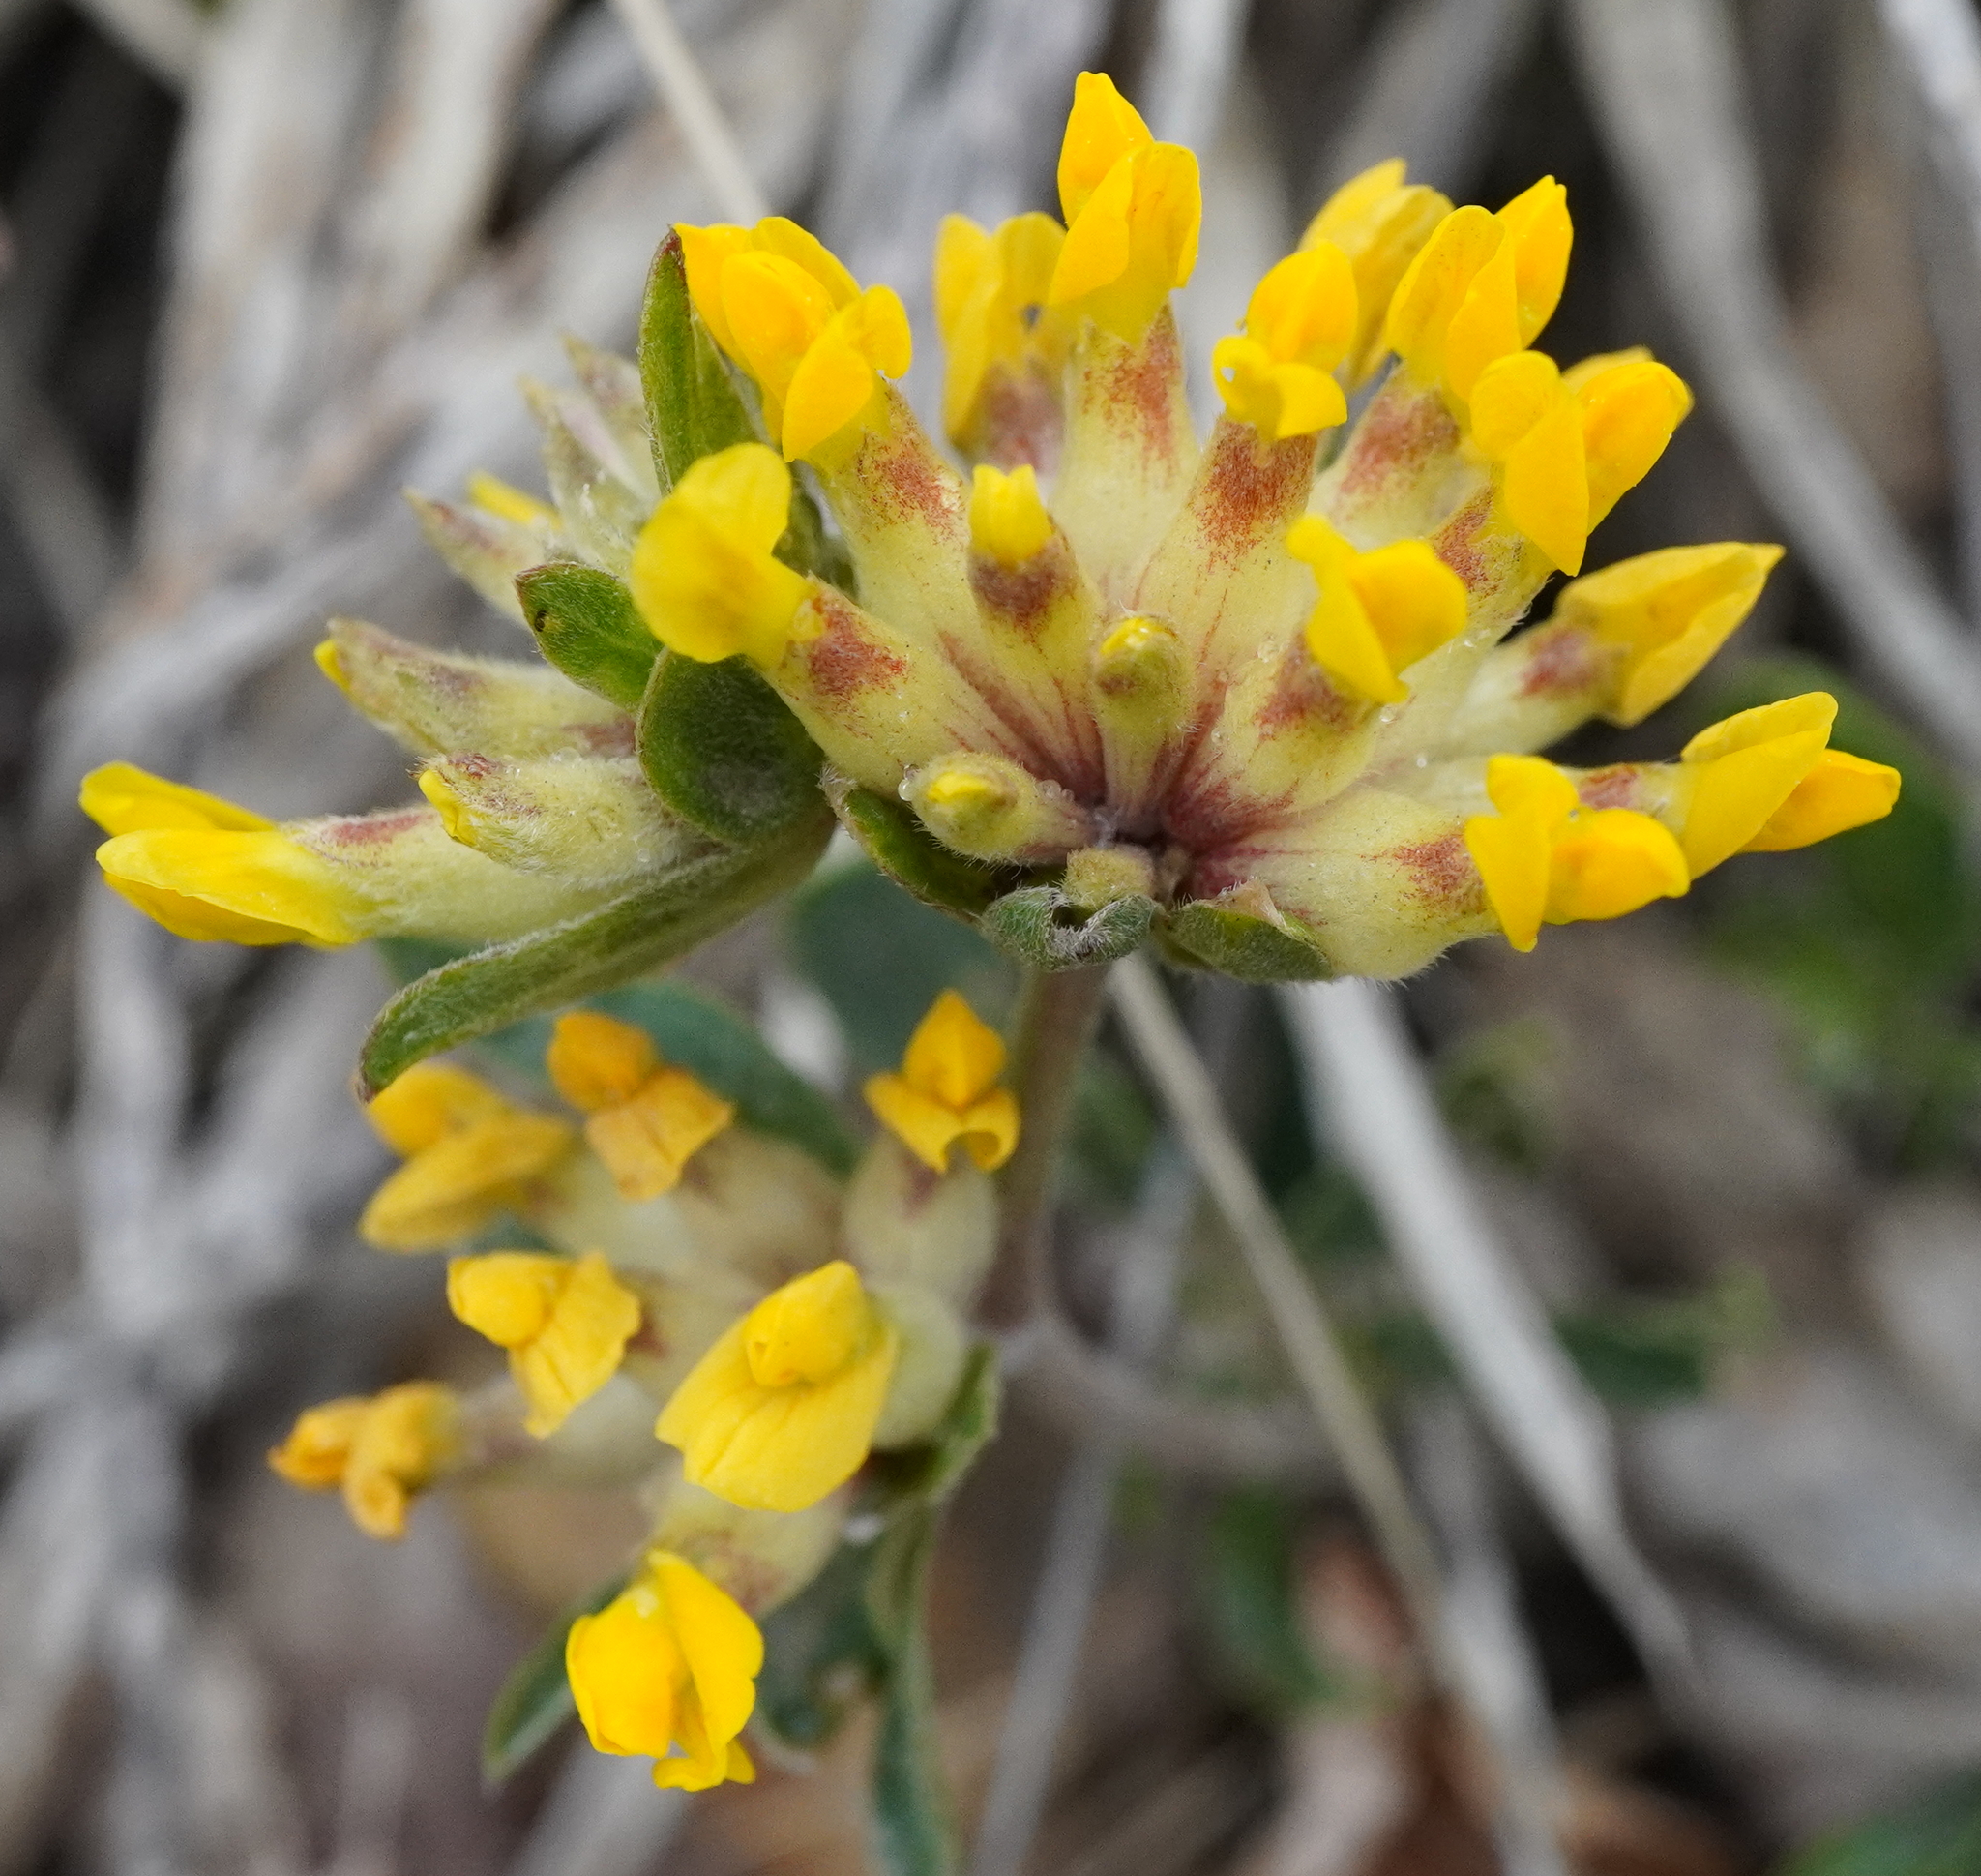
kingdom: Plantae
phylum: Tracheophyta
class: Magnoliopsida
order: Fabales
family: Fabaceae
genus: Anthyllis
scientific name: Anthyllis vulneraria
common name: Kidney vetch
